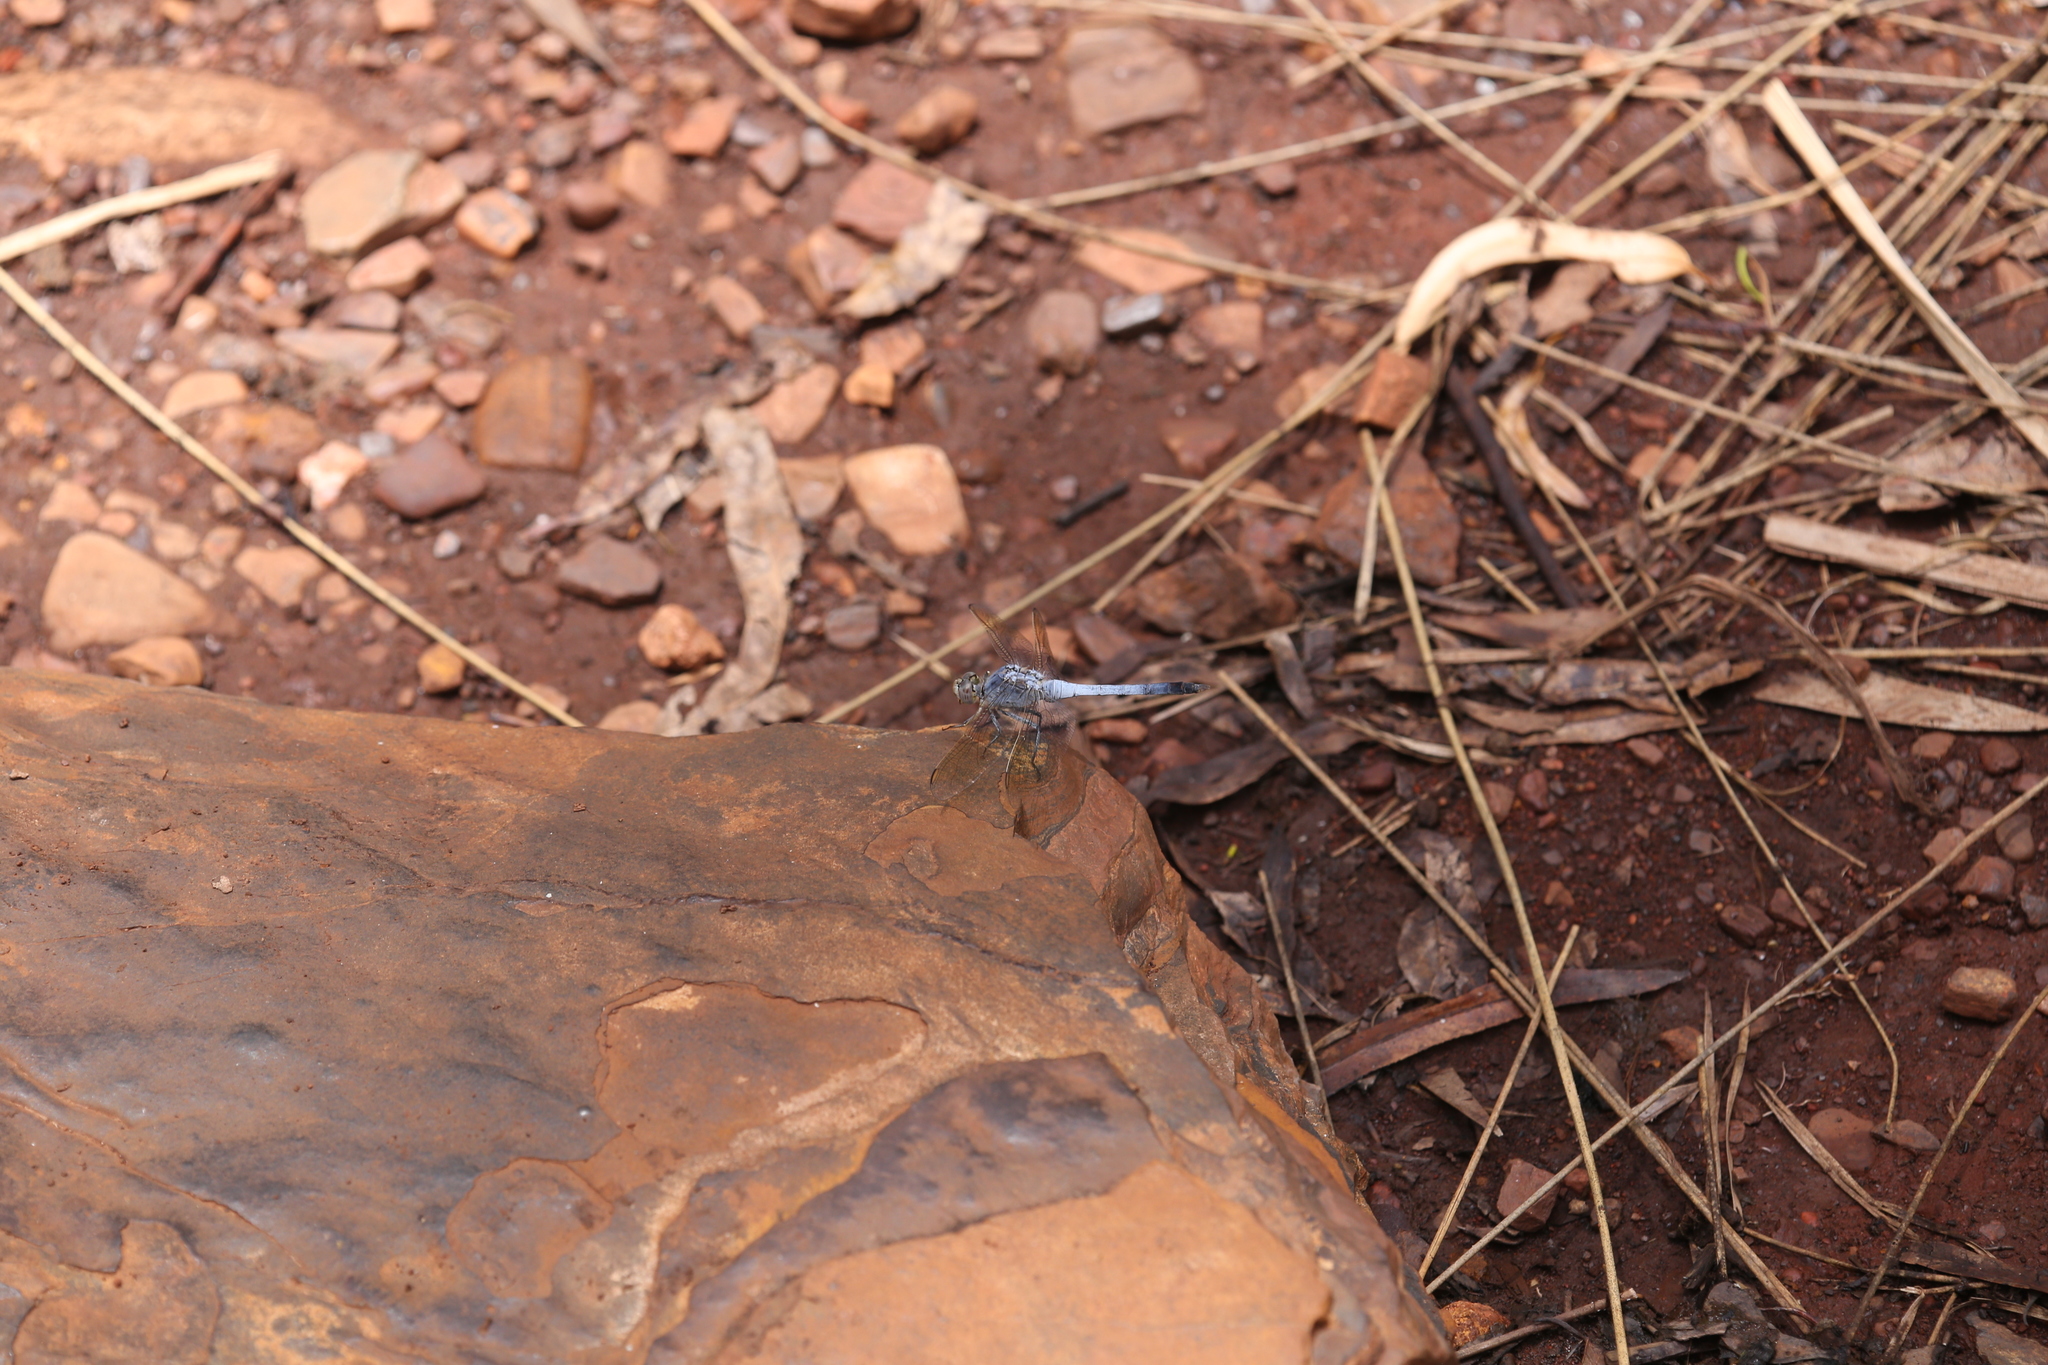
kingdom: Animalia
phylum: Arthropoda
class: Insecta
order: Odonata
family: Libellulidae
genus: Orthetrum
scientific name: Orthetrum caledonicum
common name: Blue skimmer
